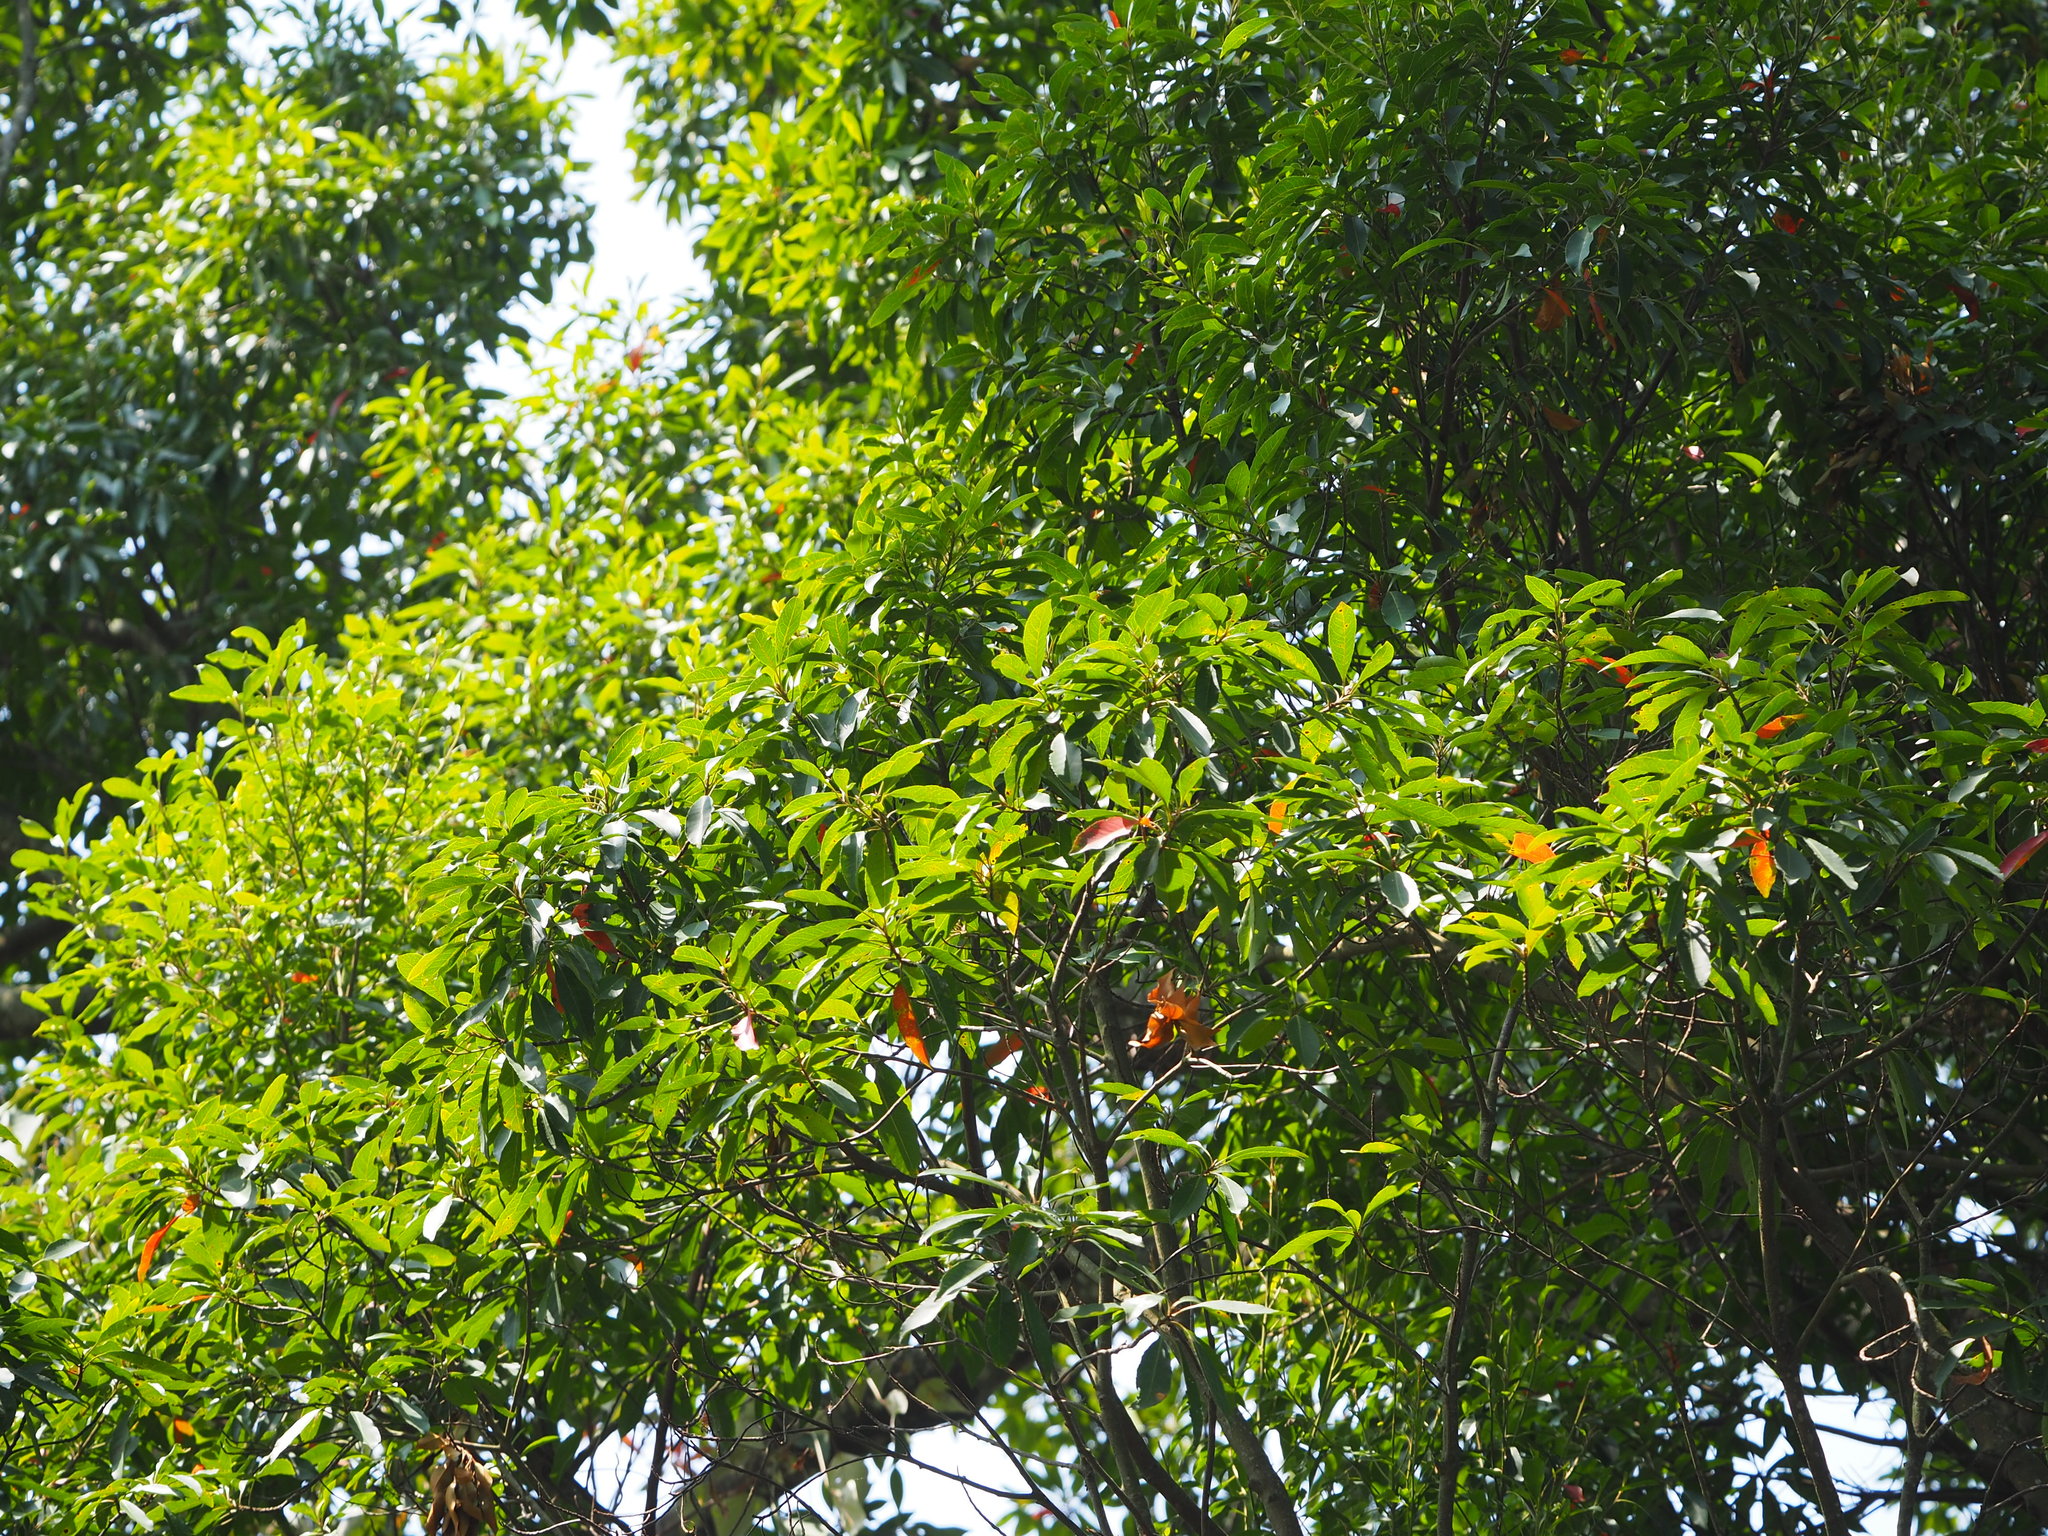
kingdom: Plantae
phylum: Tracheophyta
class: Magnoliopsida
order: Oxalidales
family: Elaeocarpaceae
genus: Elaeocarpus
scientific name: Elaeocarpus decipiens
